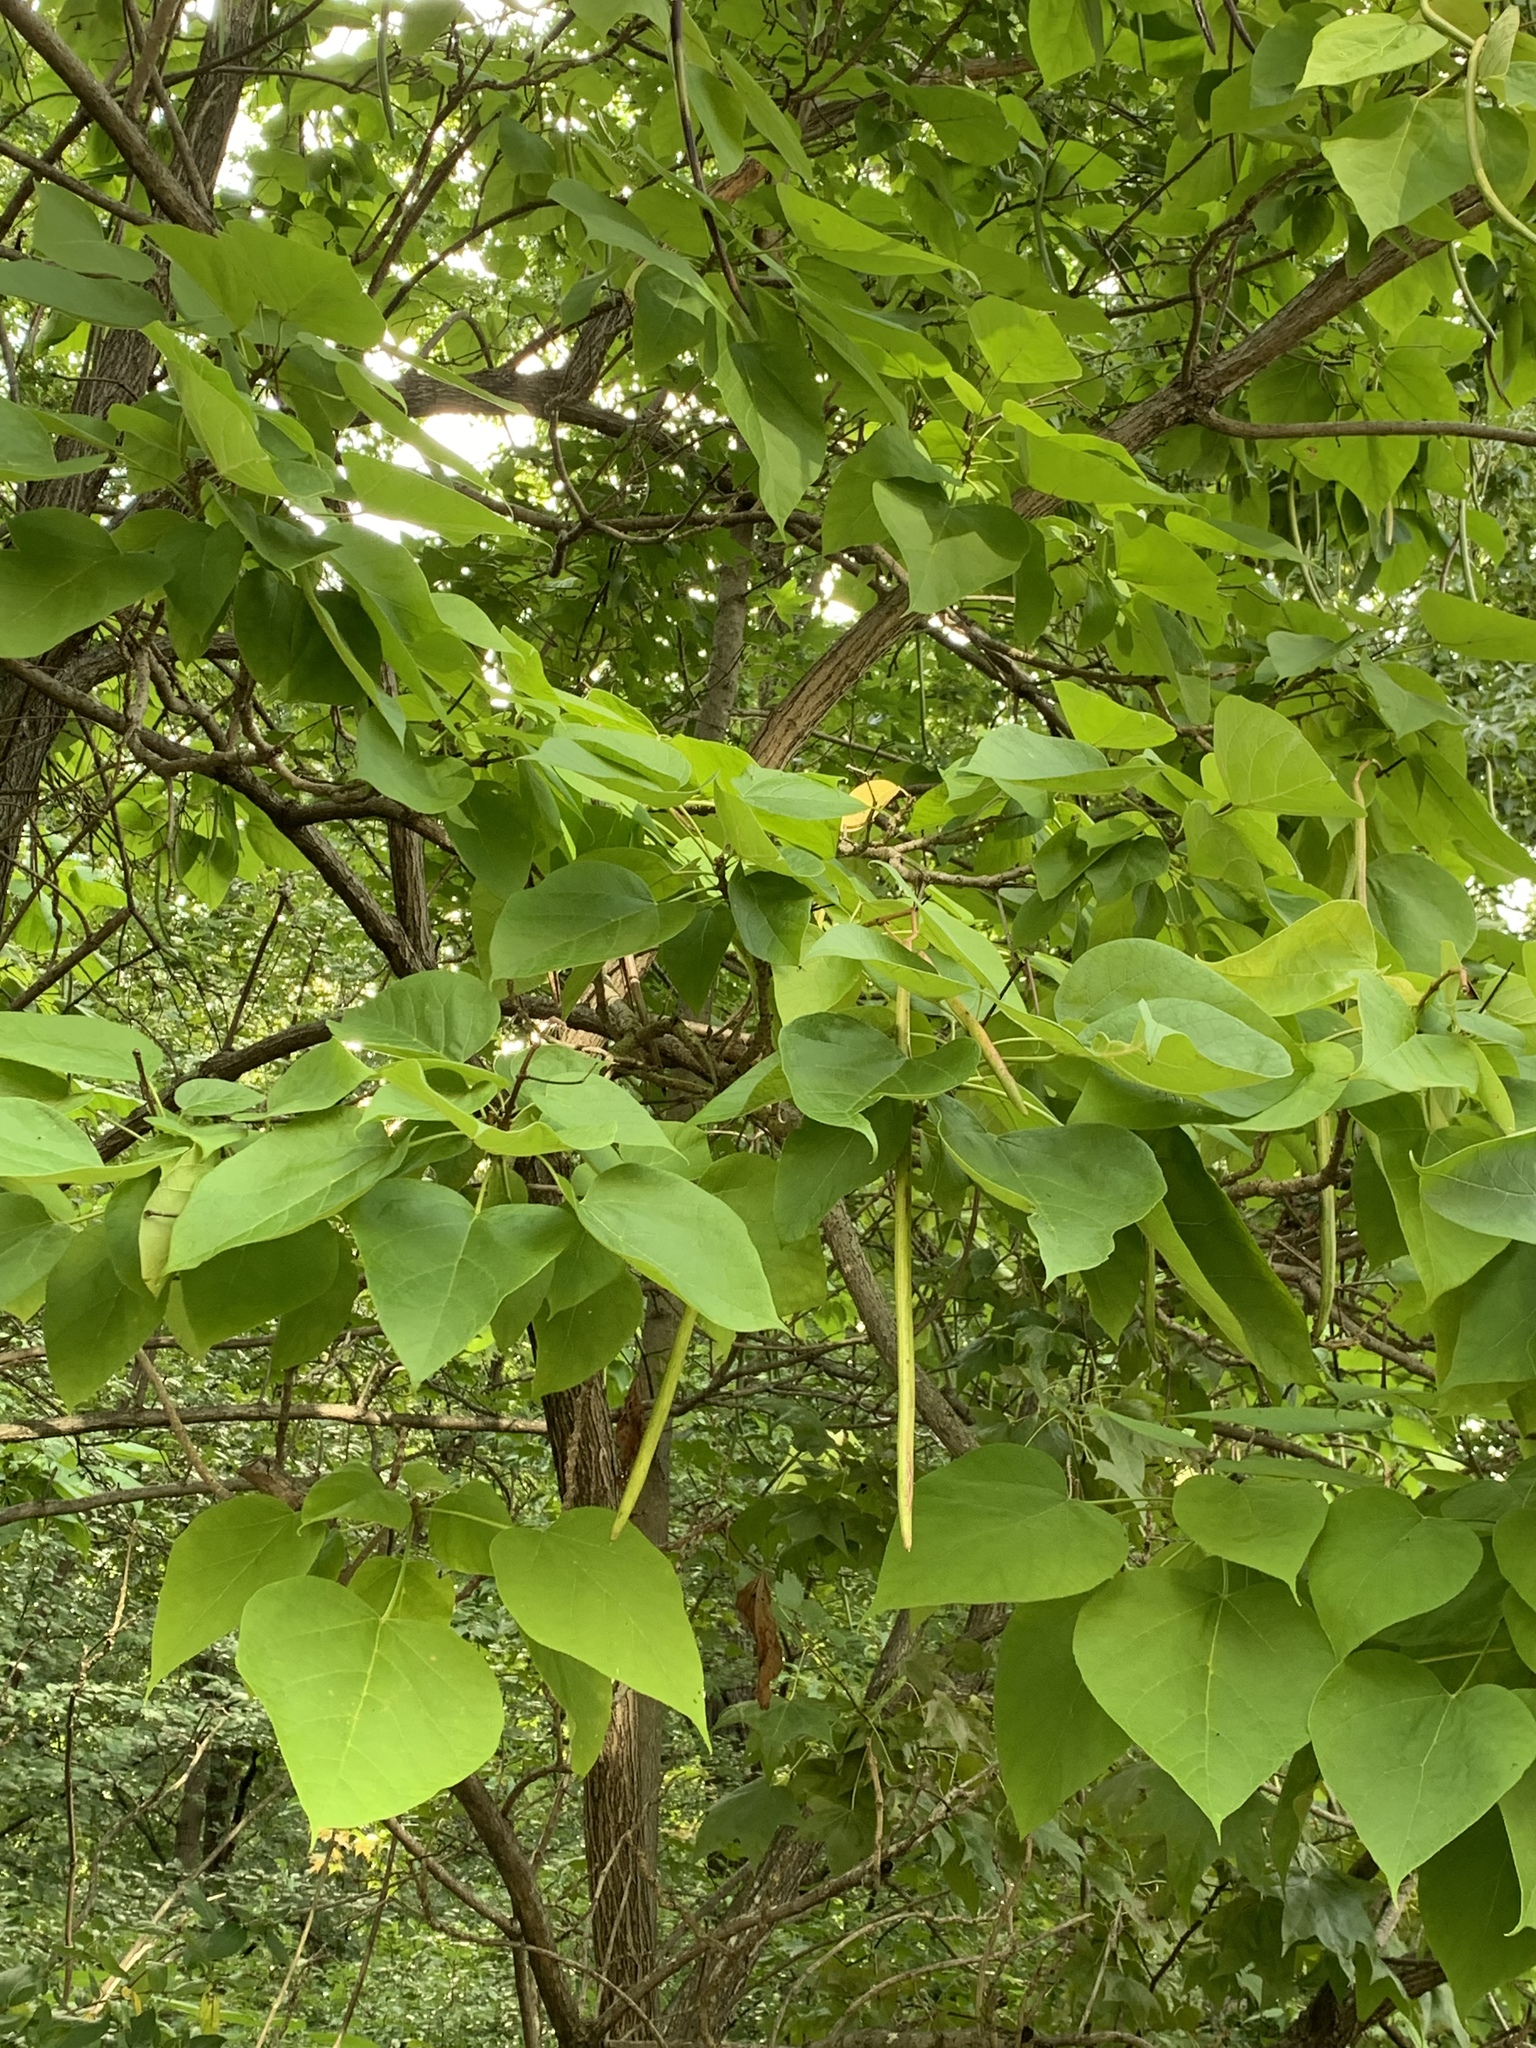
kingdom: Plantae
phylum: Tracheophyta
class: Magnoliopsida
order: Lamiales
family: Bignoniaceae
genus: Catalpa
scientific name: Catalpa speciosa
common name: Northern catalpa
